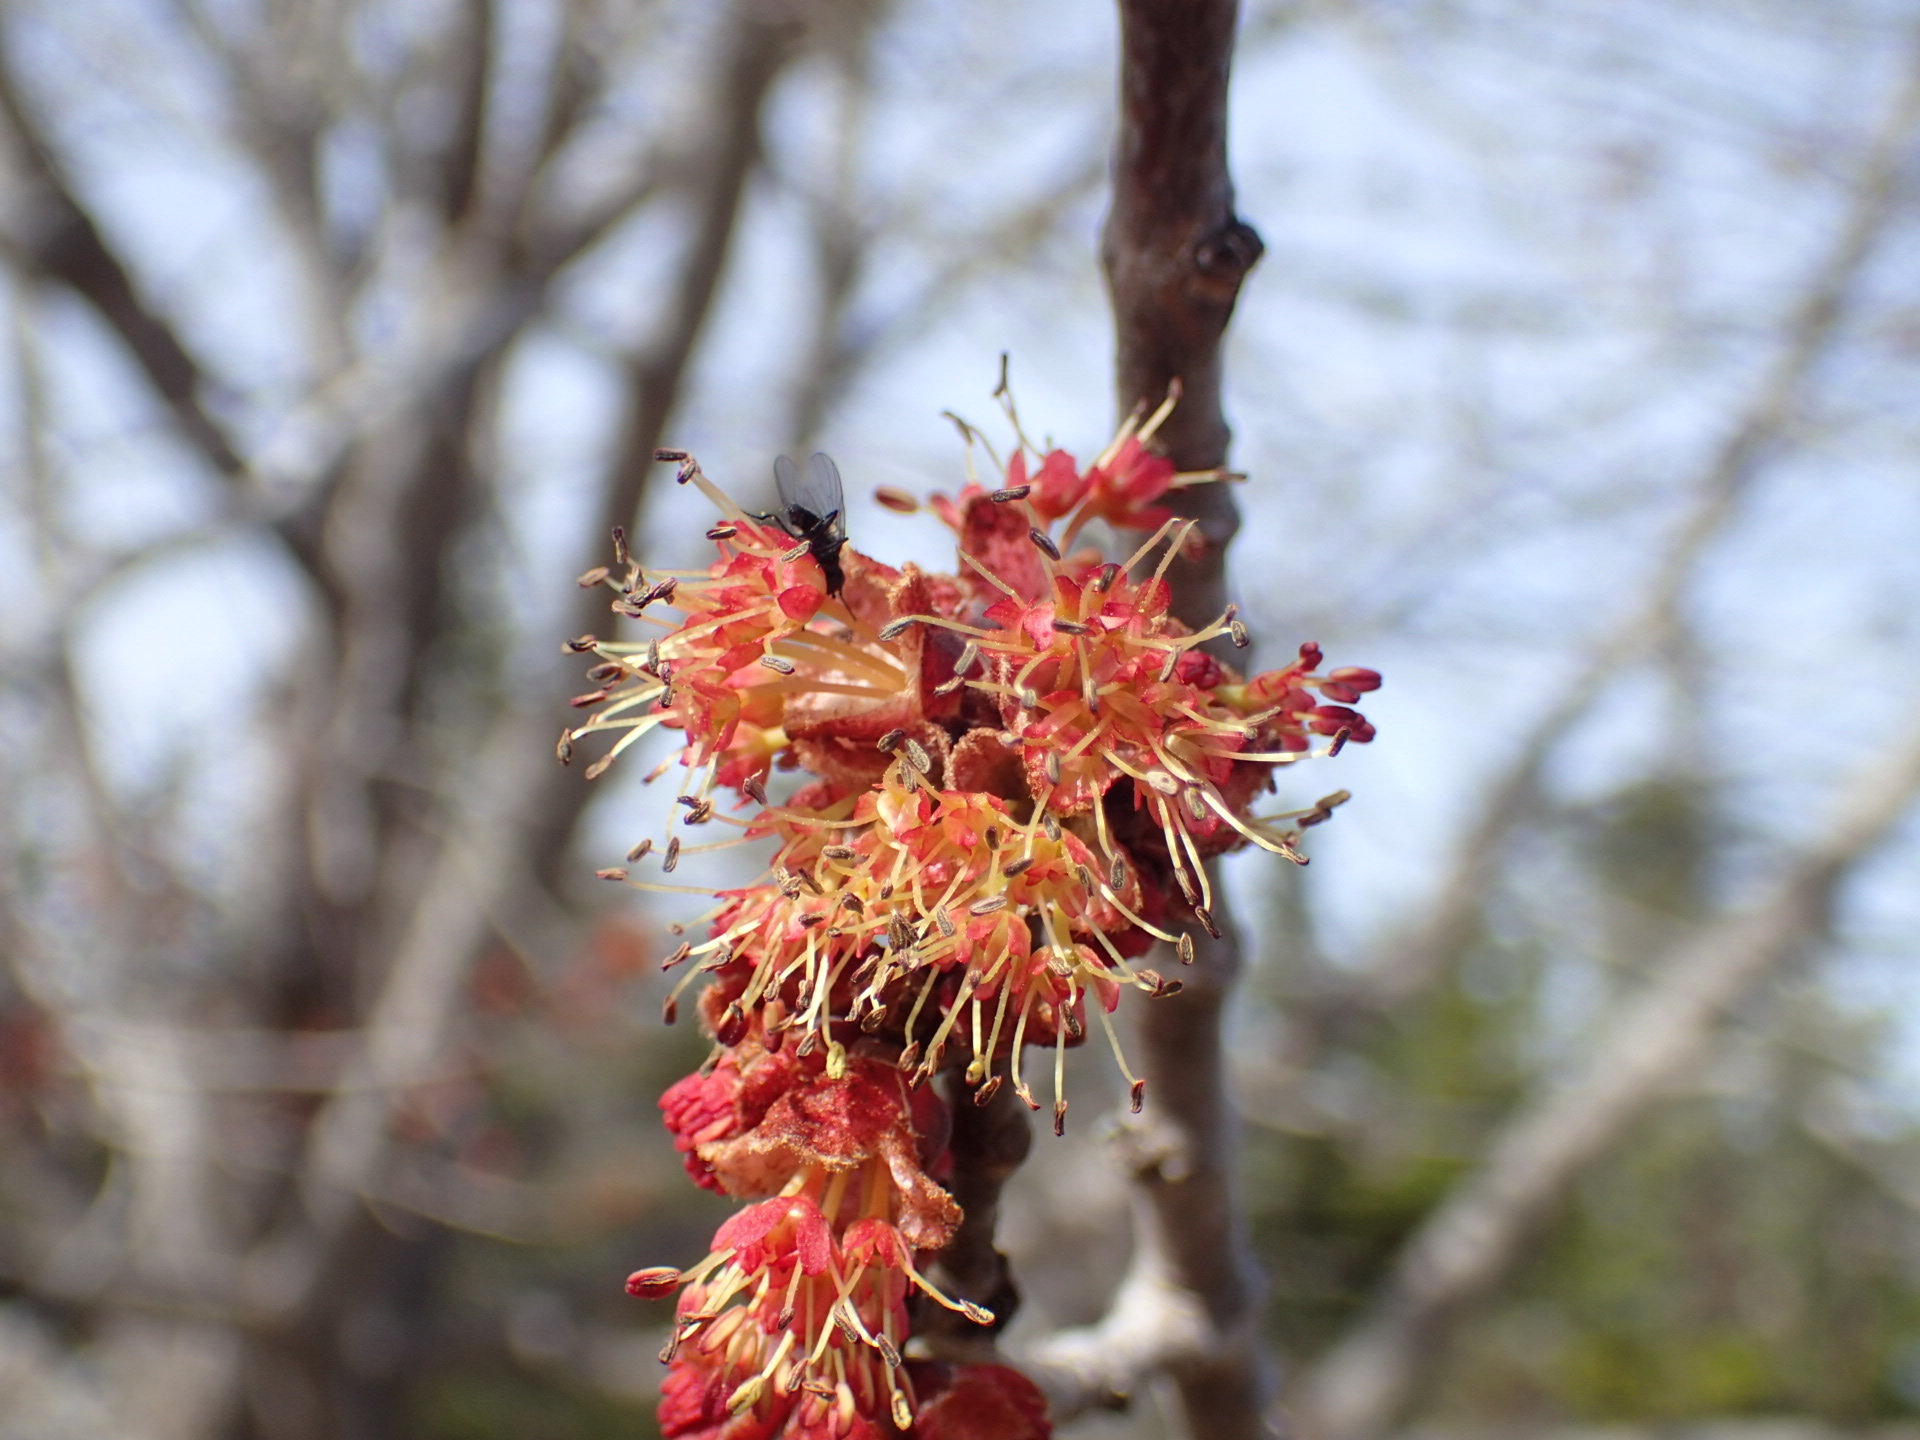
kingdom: Plantae
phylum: Tracheophyta
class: Magnoliopsida
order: Sapindales
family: Sapindaceae
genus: Acer
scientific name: Acer rubrum
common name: Red maple
